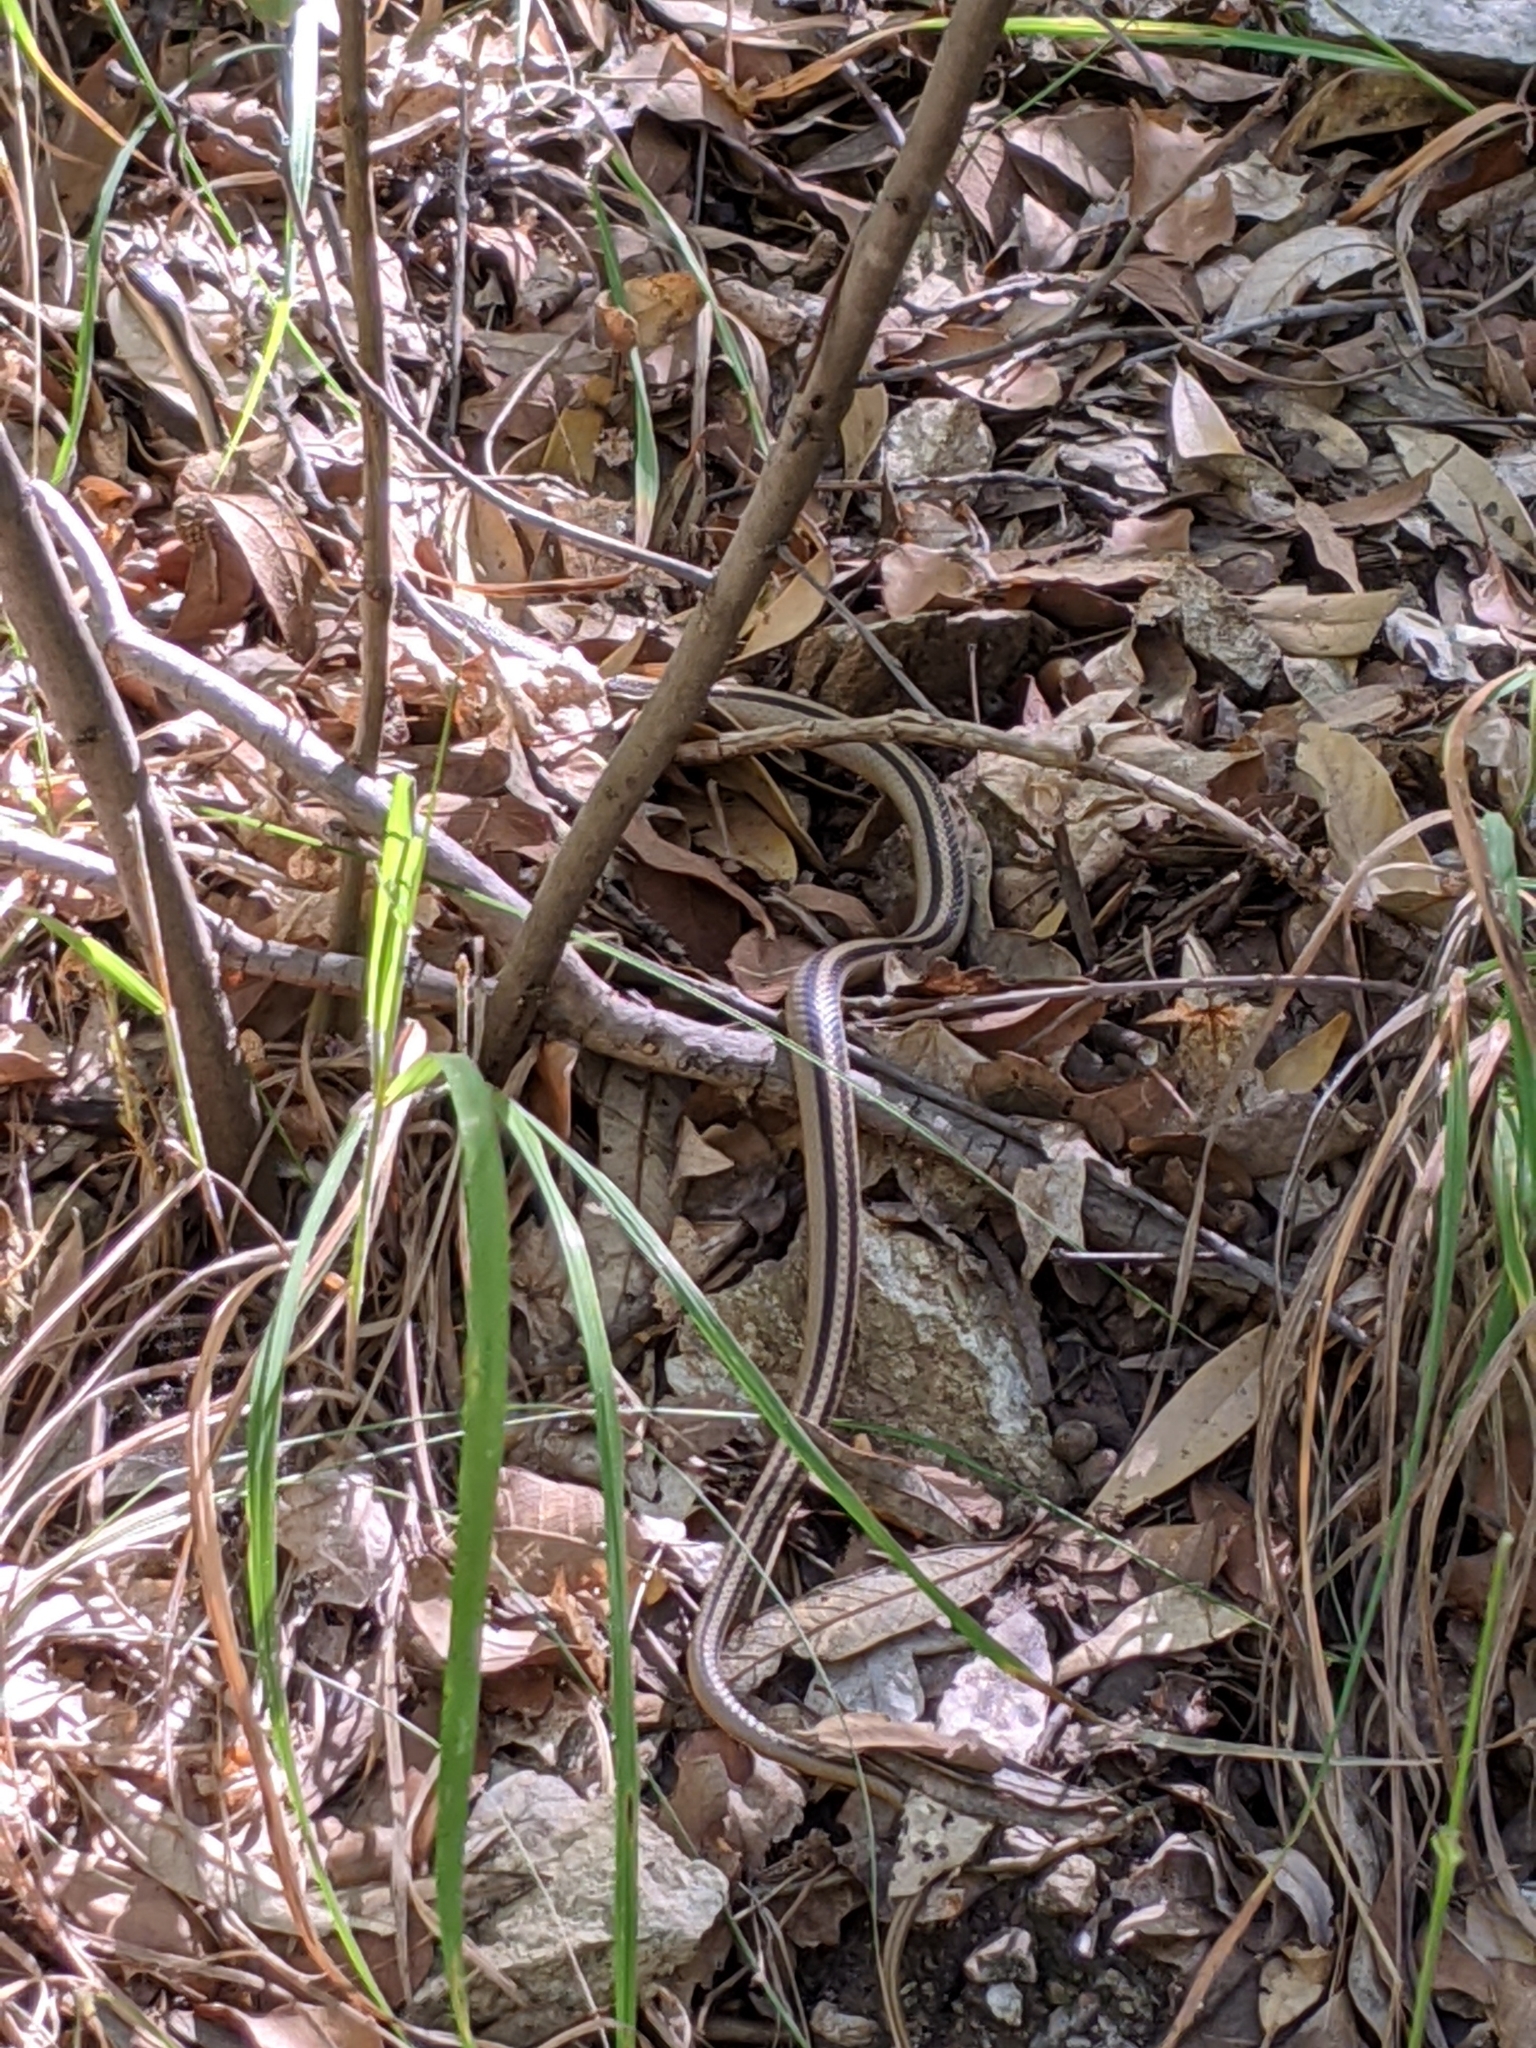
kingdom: Animalia
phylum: Chordata
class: Squamata
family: Colubridae
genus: Salvadora
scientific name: Salvadora grahamiae
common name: Mountain patchnose snake
